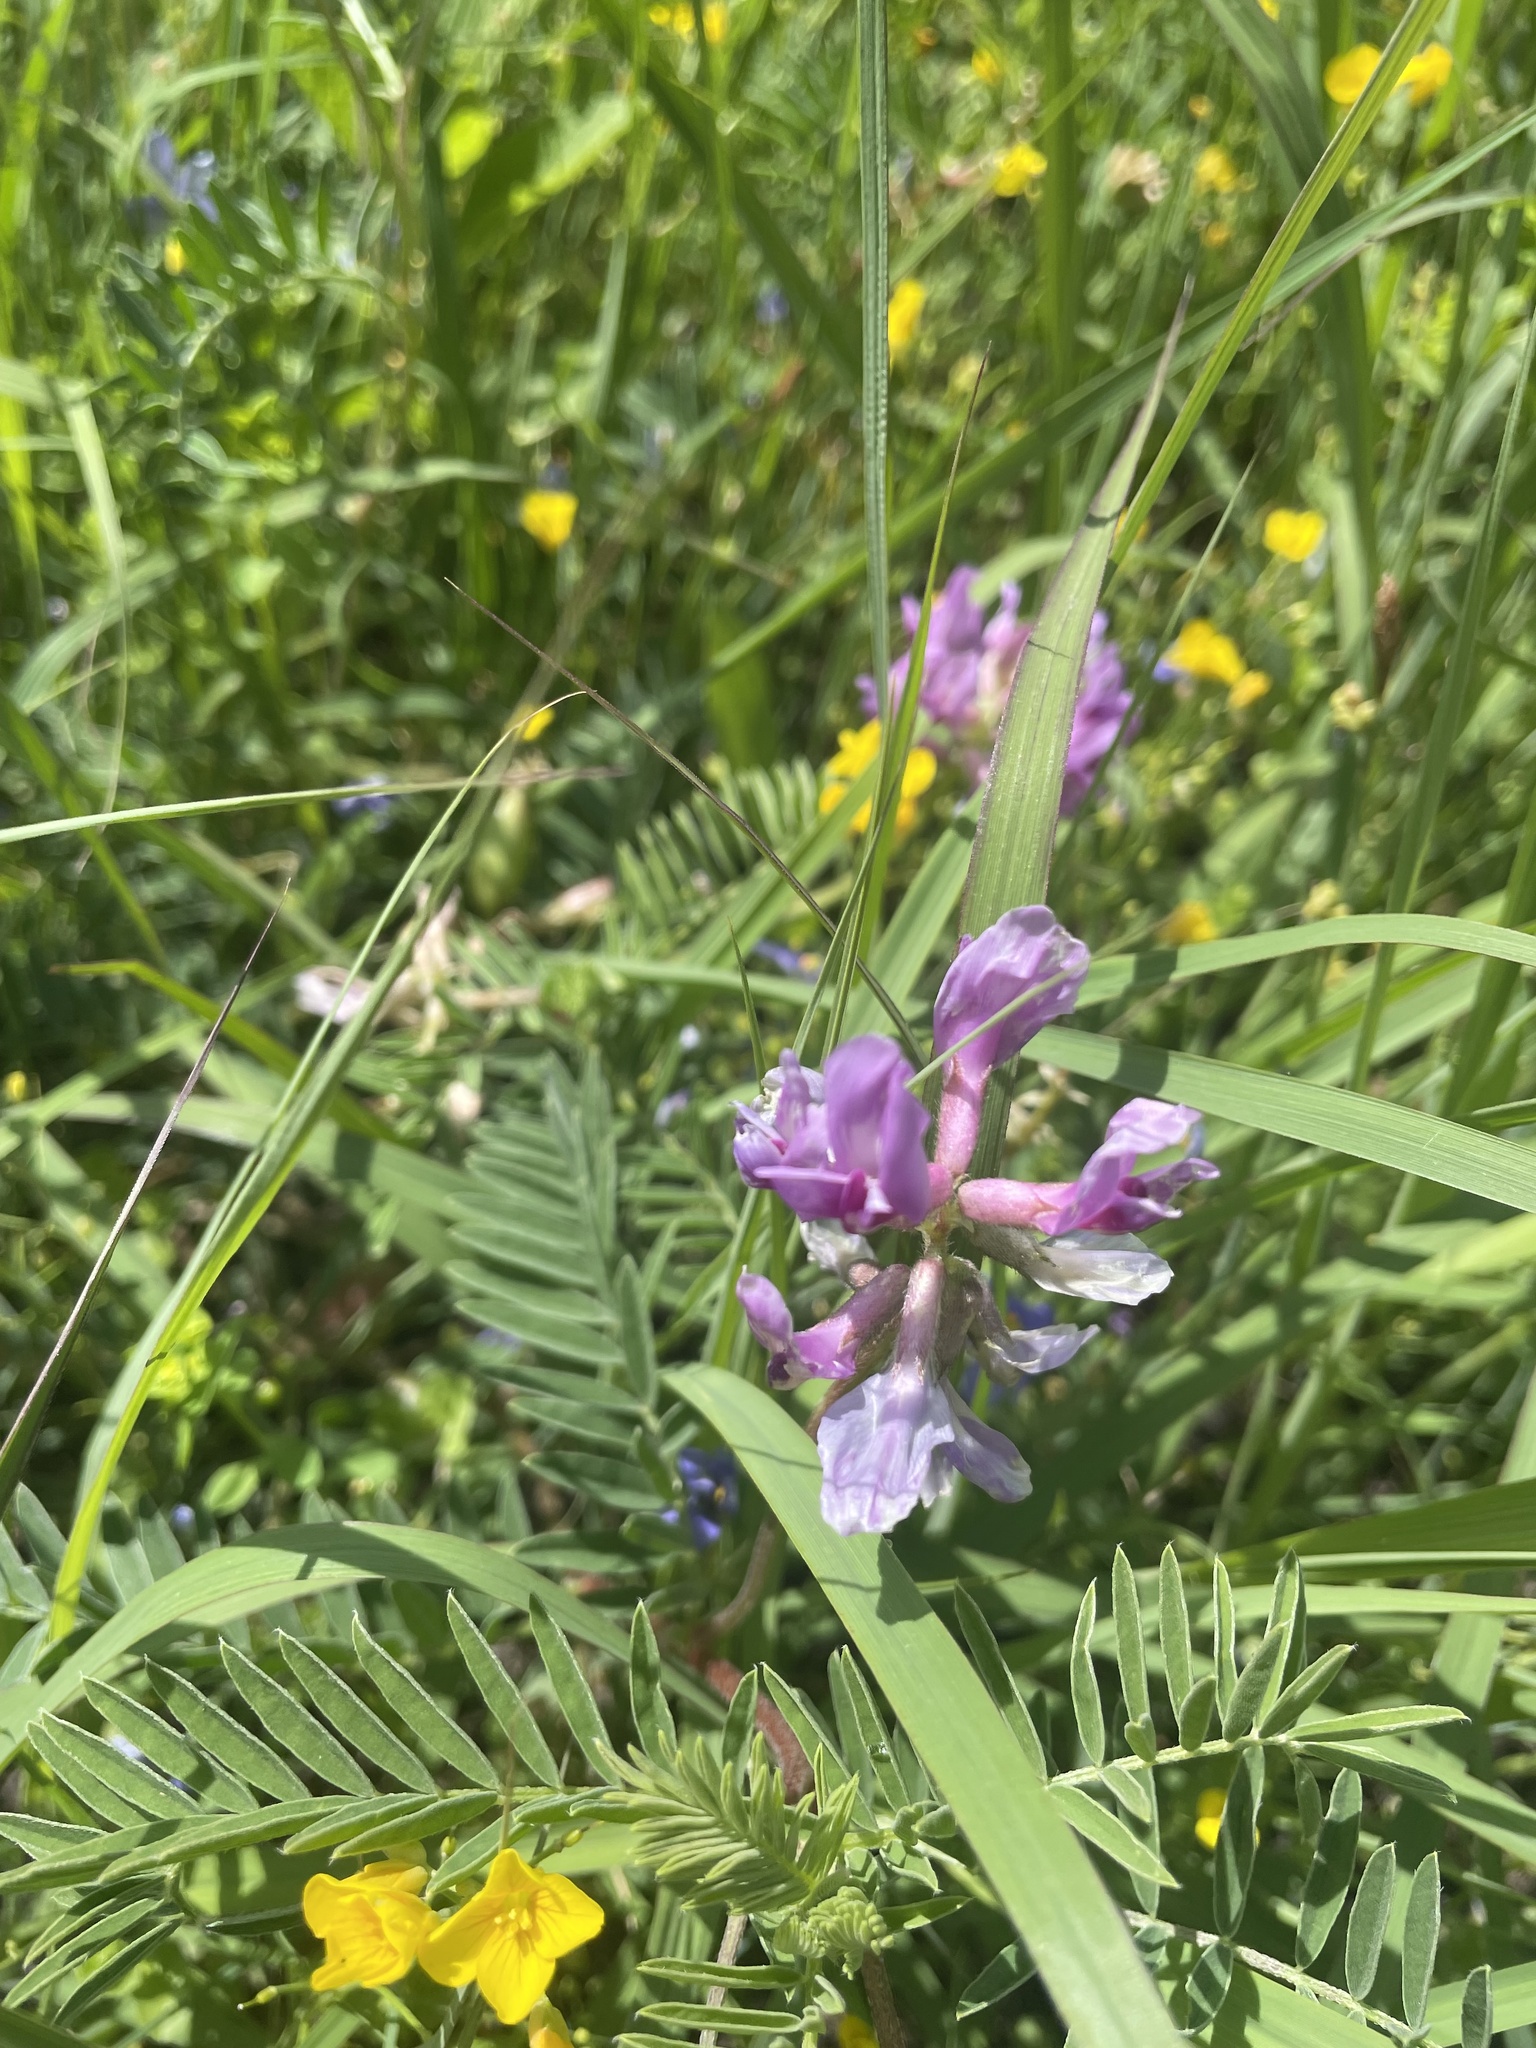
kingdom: Plantae
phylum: Tracheophyta
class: Magnoliopsida
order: Fabales
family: Fabaceae
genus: Astragalus
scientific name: Astragalus crassicarpus
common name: Ground-plum milk-vetch
